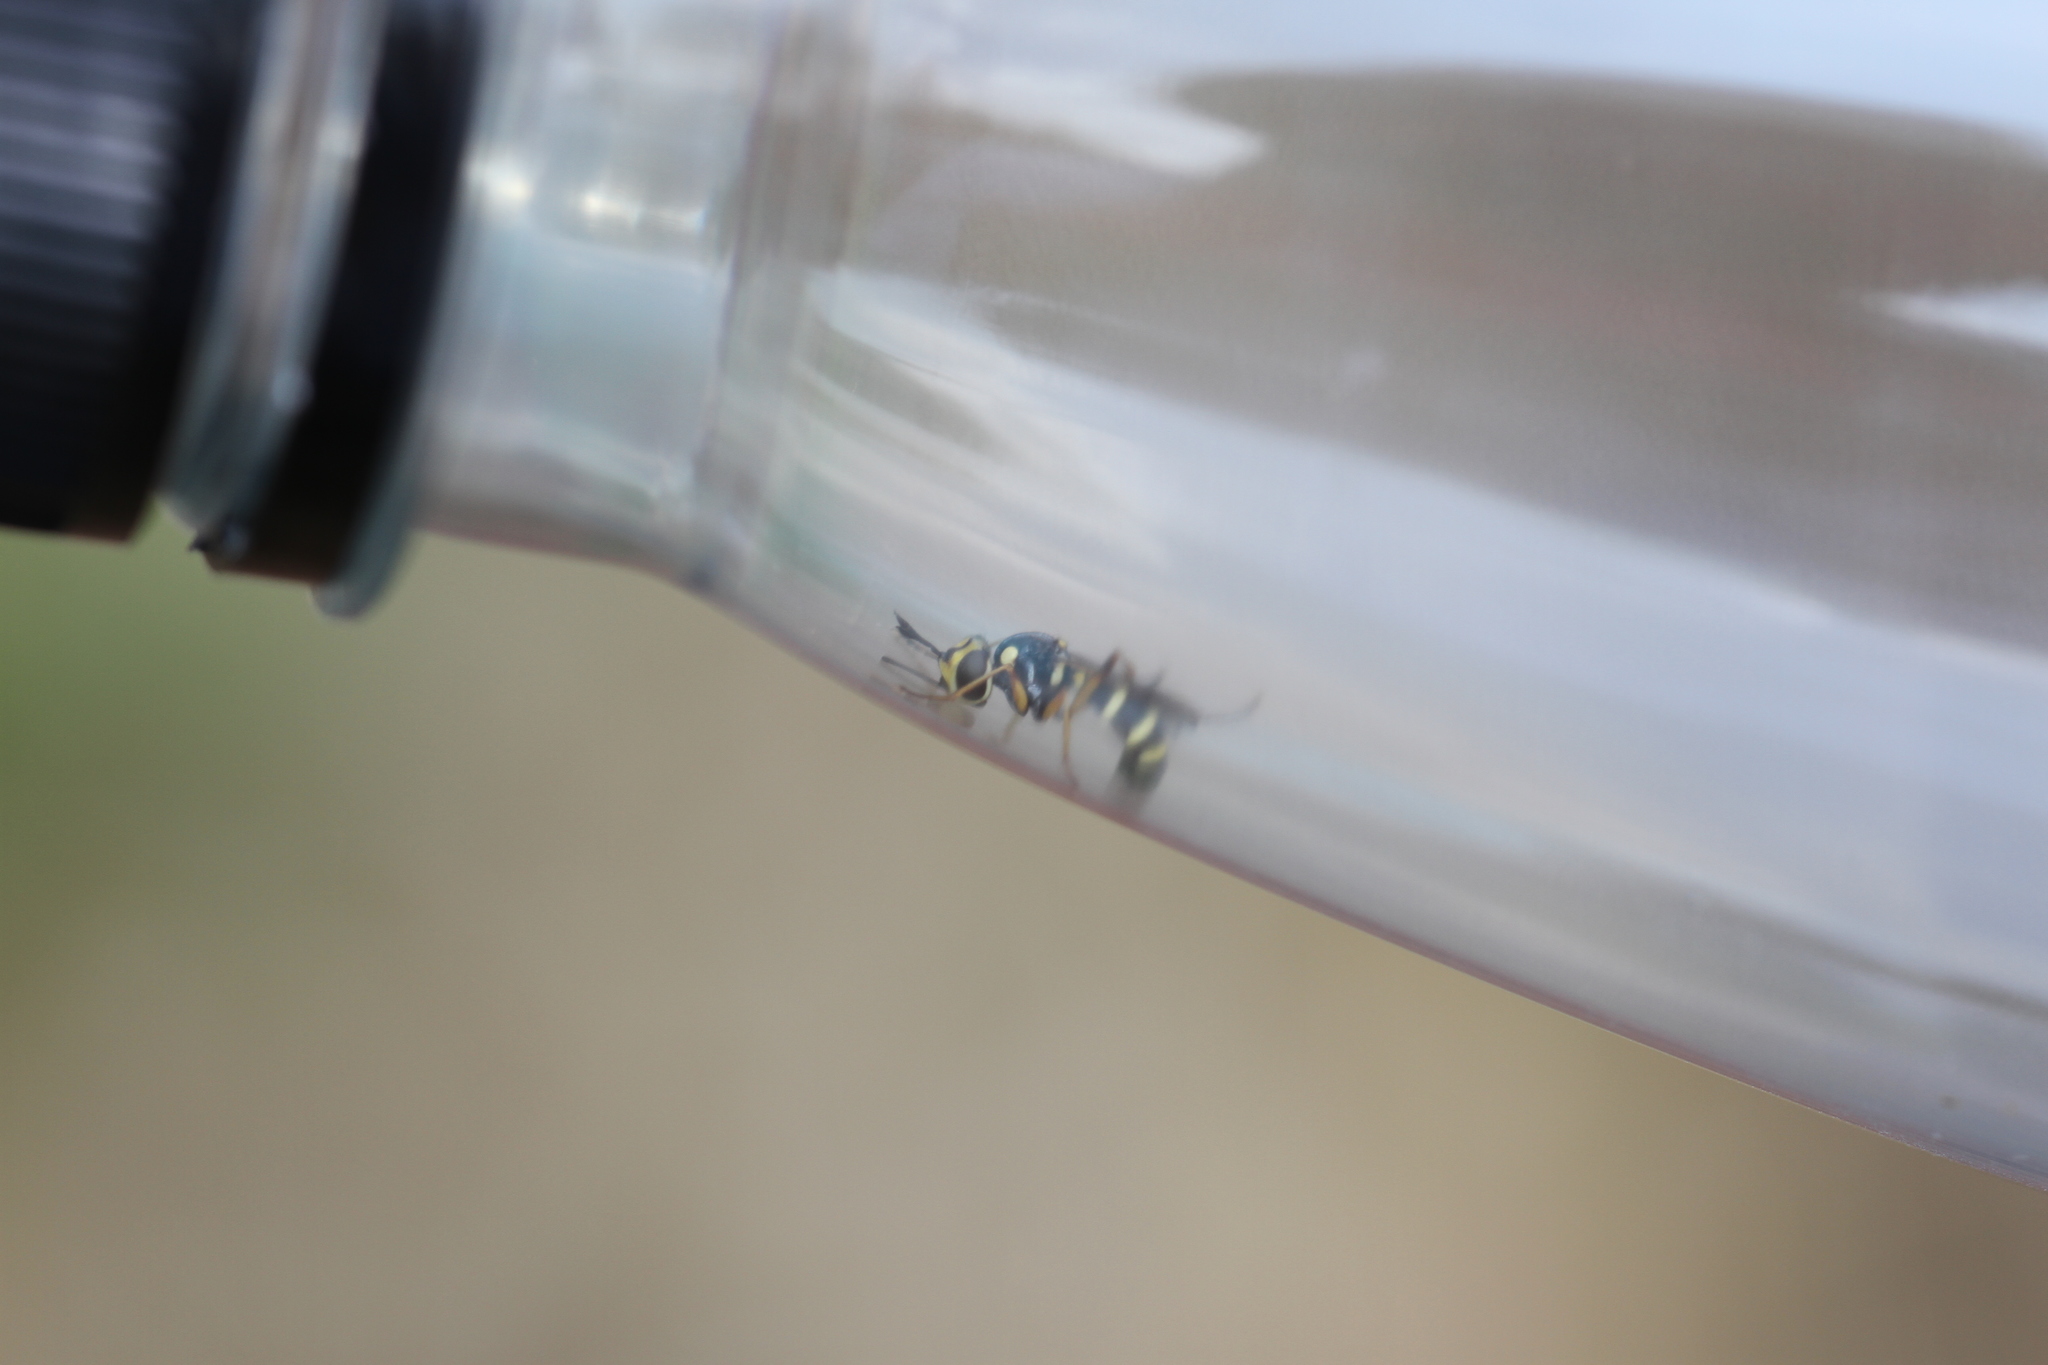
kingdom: Animalia
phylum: Arthropoda
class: Insecta
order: Diptera
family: Conopidae
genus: Conops
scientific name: Conops quadrifasciatus
